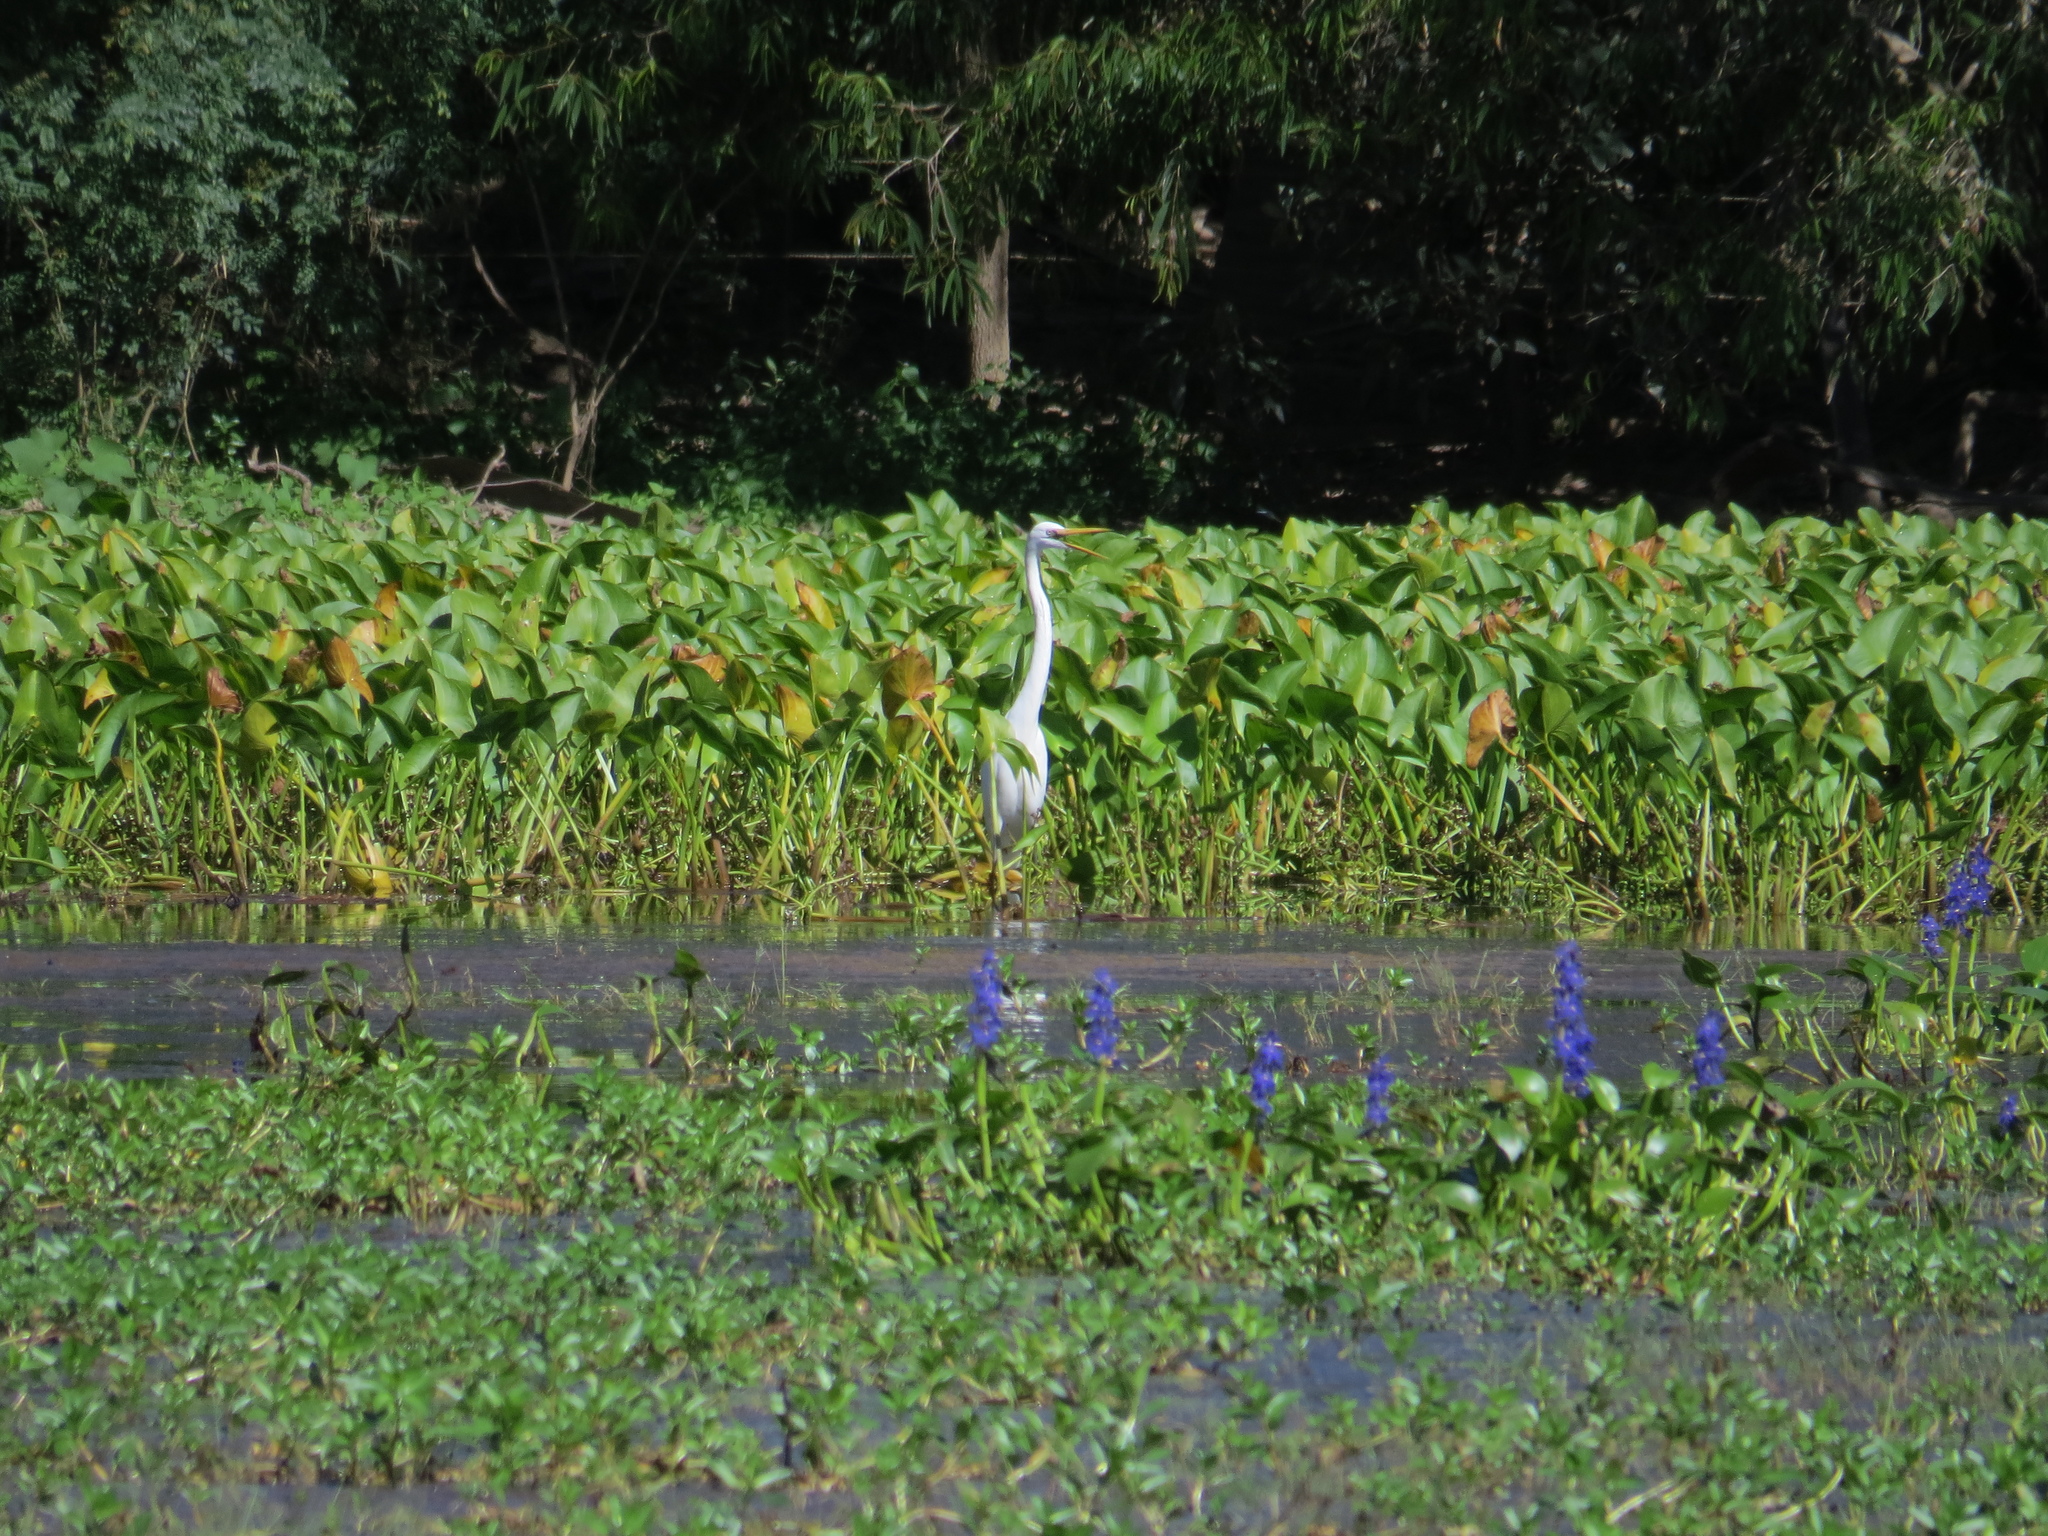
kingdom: Plantae
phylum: Tracheophyta
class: Liliopsida
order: Alismatales
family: Alismataceae
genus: Astonia
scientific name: Astonia australiensis
